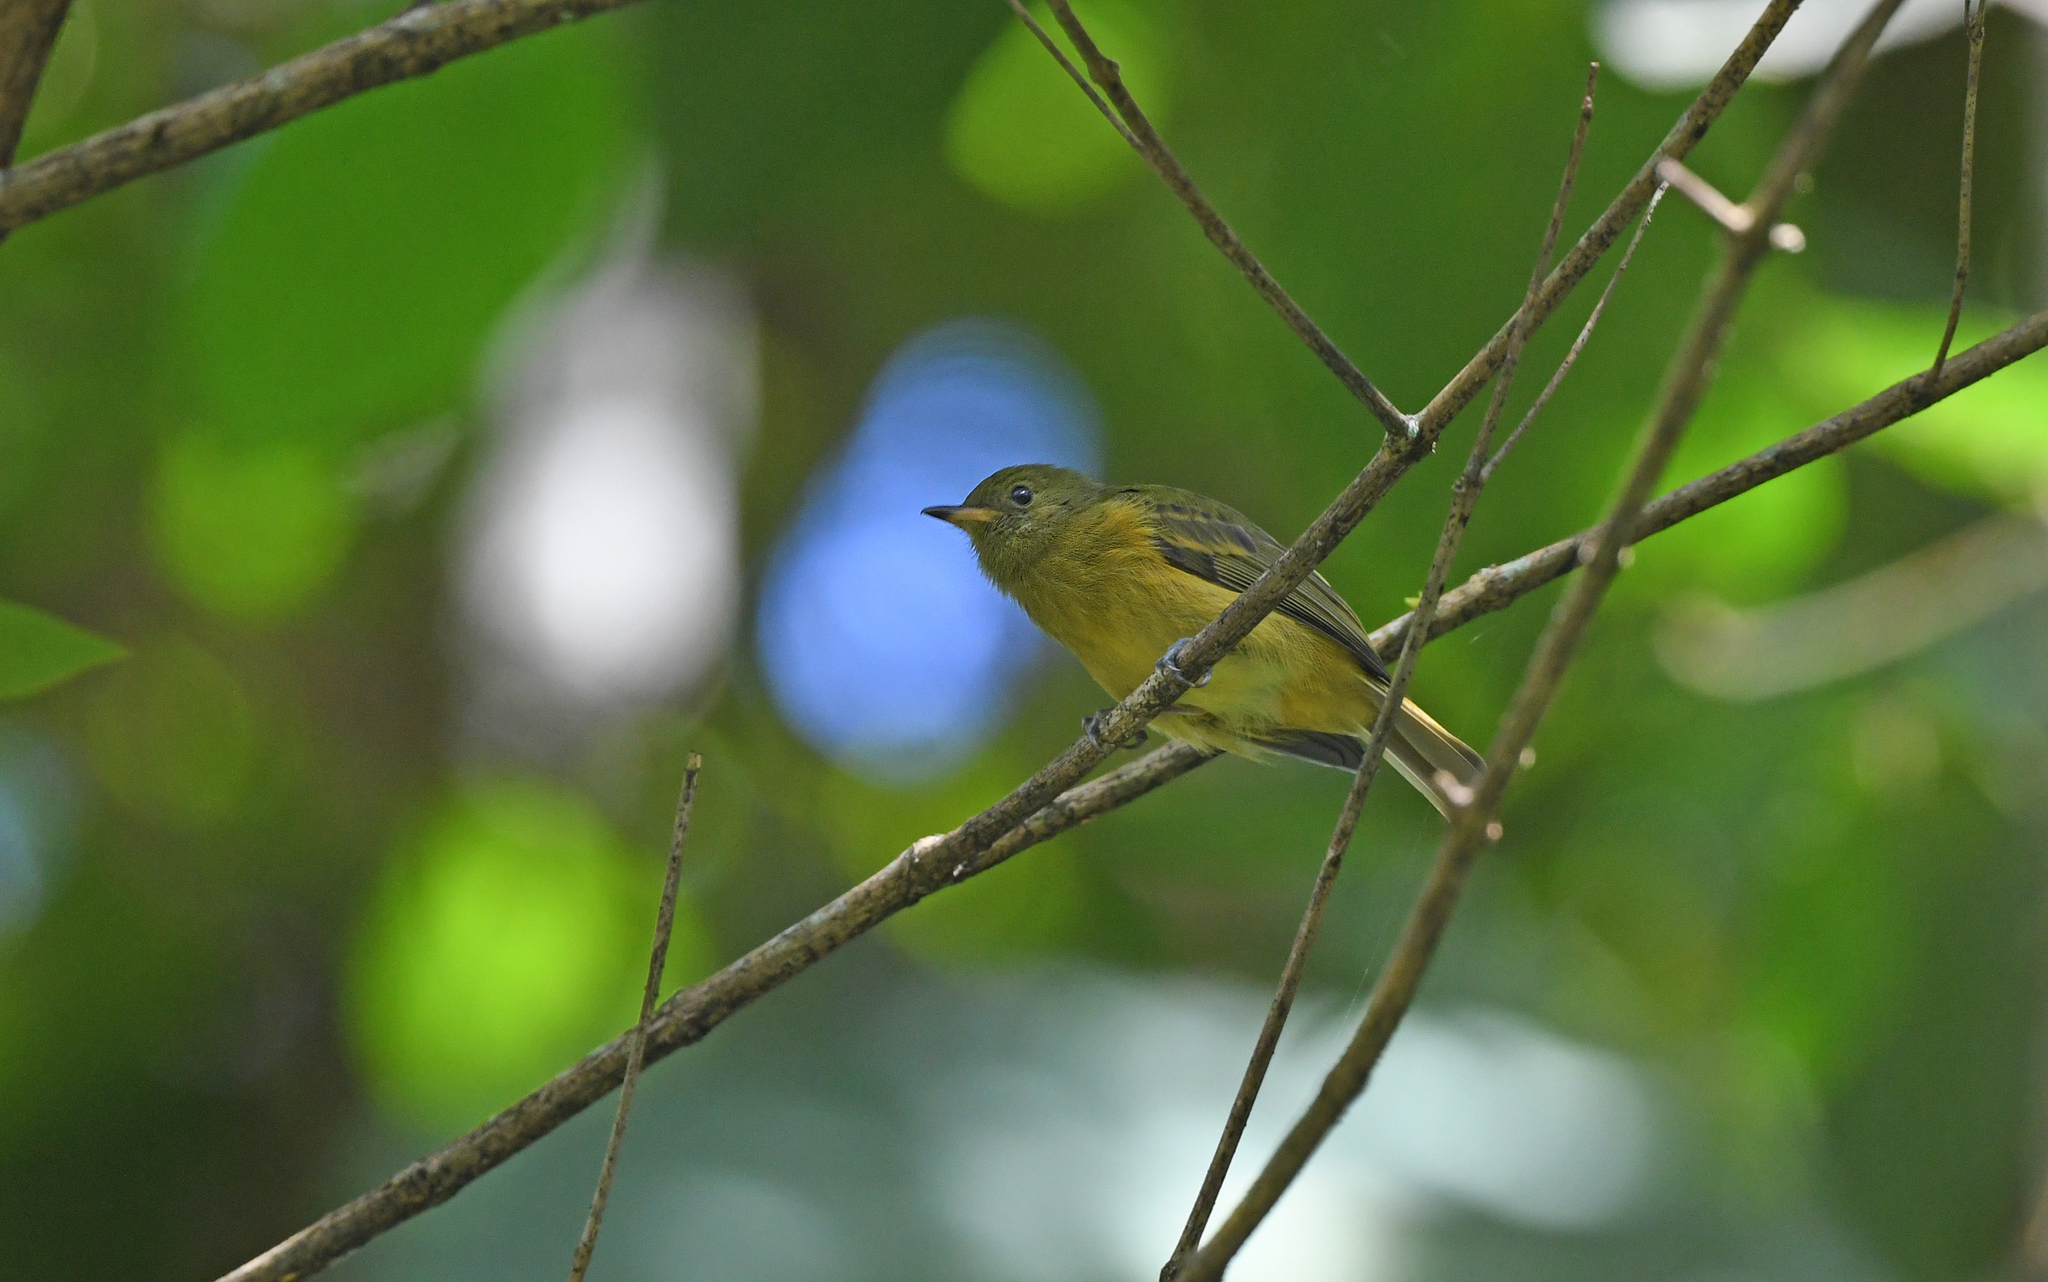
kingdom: Animalia
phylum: Chordata
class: Aves
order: Passeriformes
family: Tyrannidae
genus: Mionectes
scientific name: Mionectes oleagineus
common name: Ochre-bellied flycatcher
